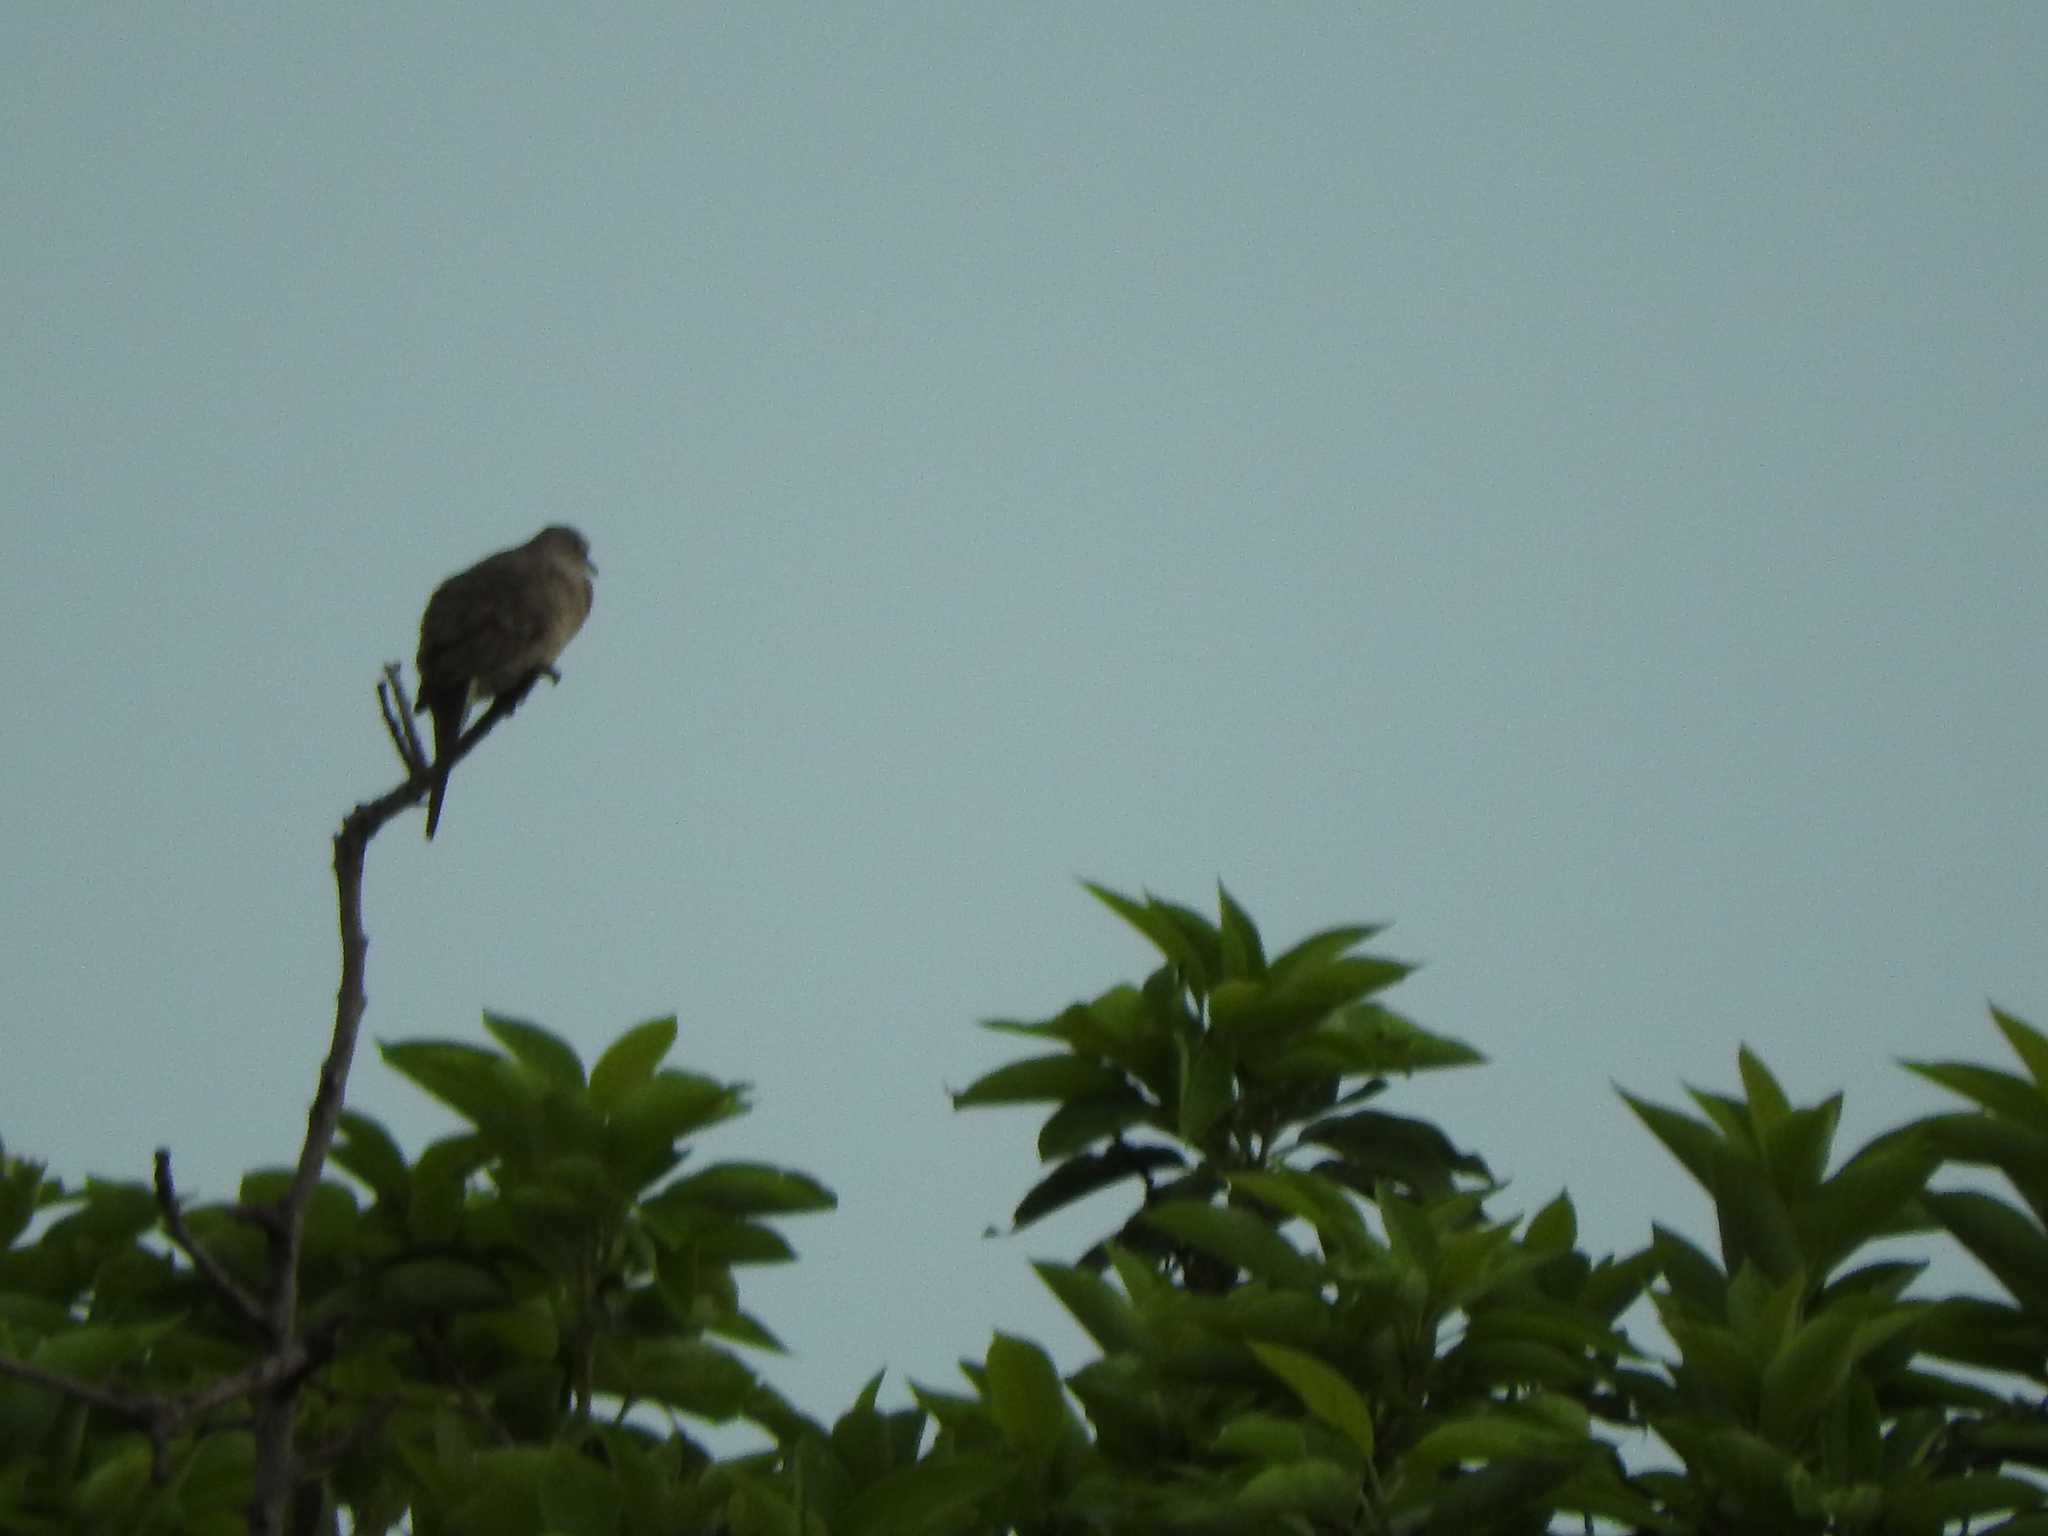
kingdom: Animalia
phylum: Chordata
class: Aves
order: Columbiformes
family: Columbidae
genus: Columbina
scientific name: Columbina inca
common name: Inca dove
